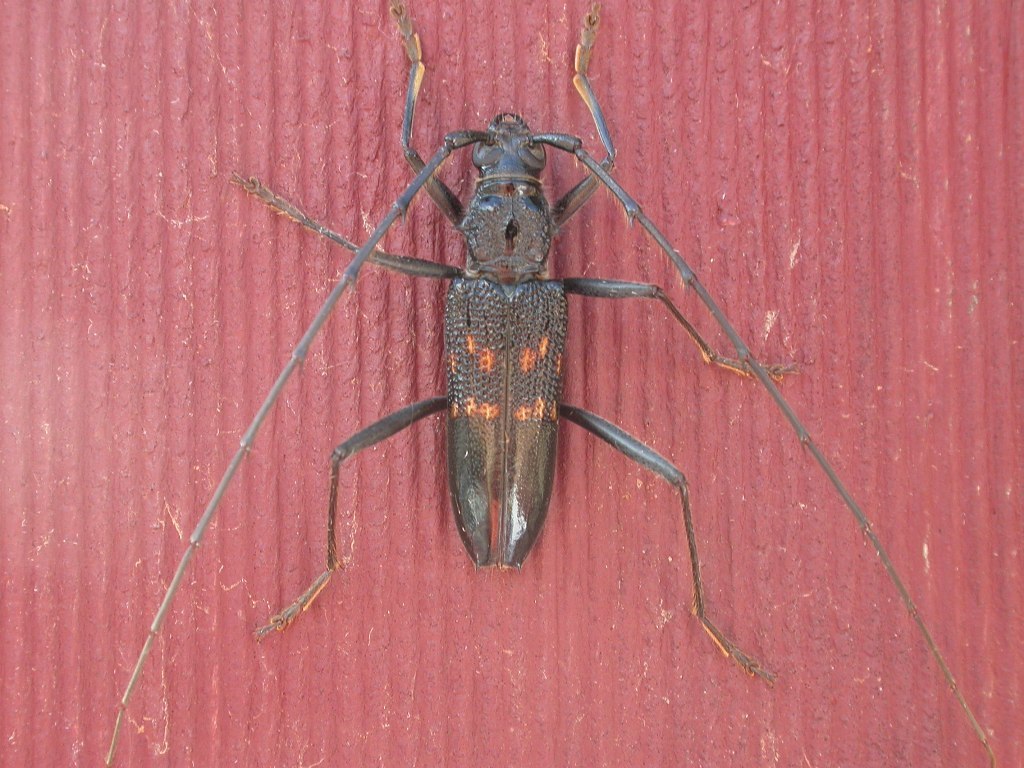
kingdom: Animalia
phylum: Arthropoda
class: Insecta
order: Coleoptera
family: Cerambycidae
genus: Phoracantha
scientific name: Phoracantha obscura
